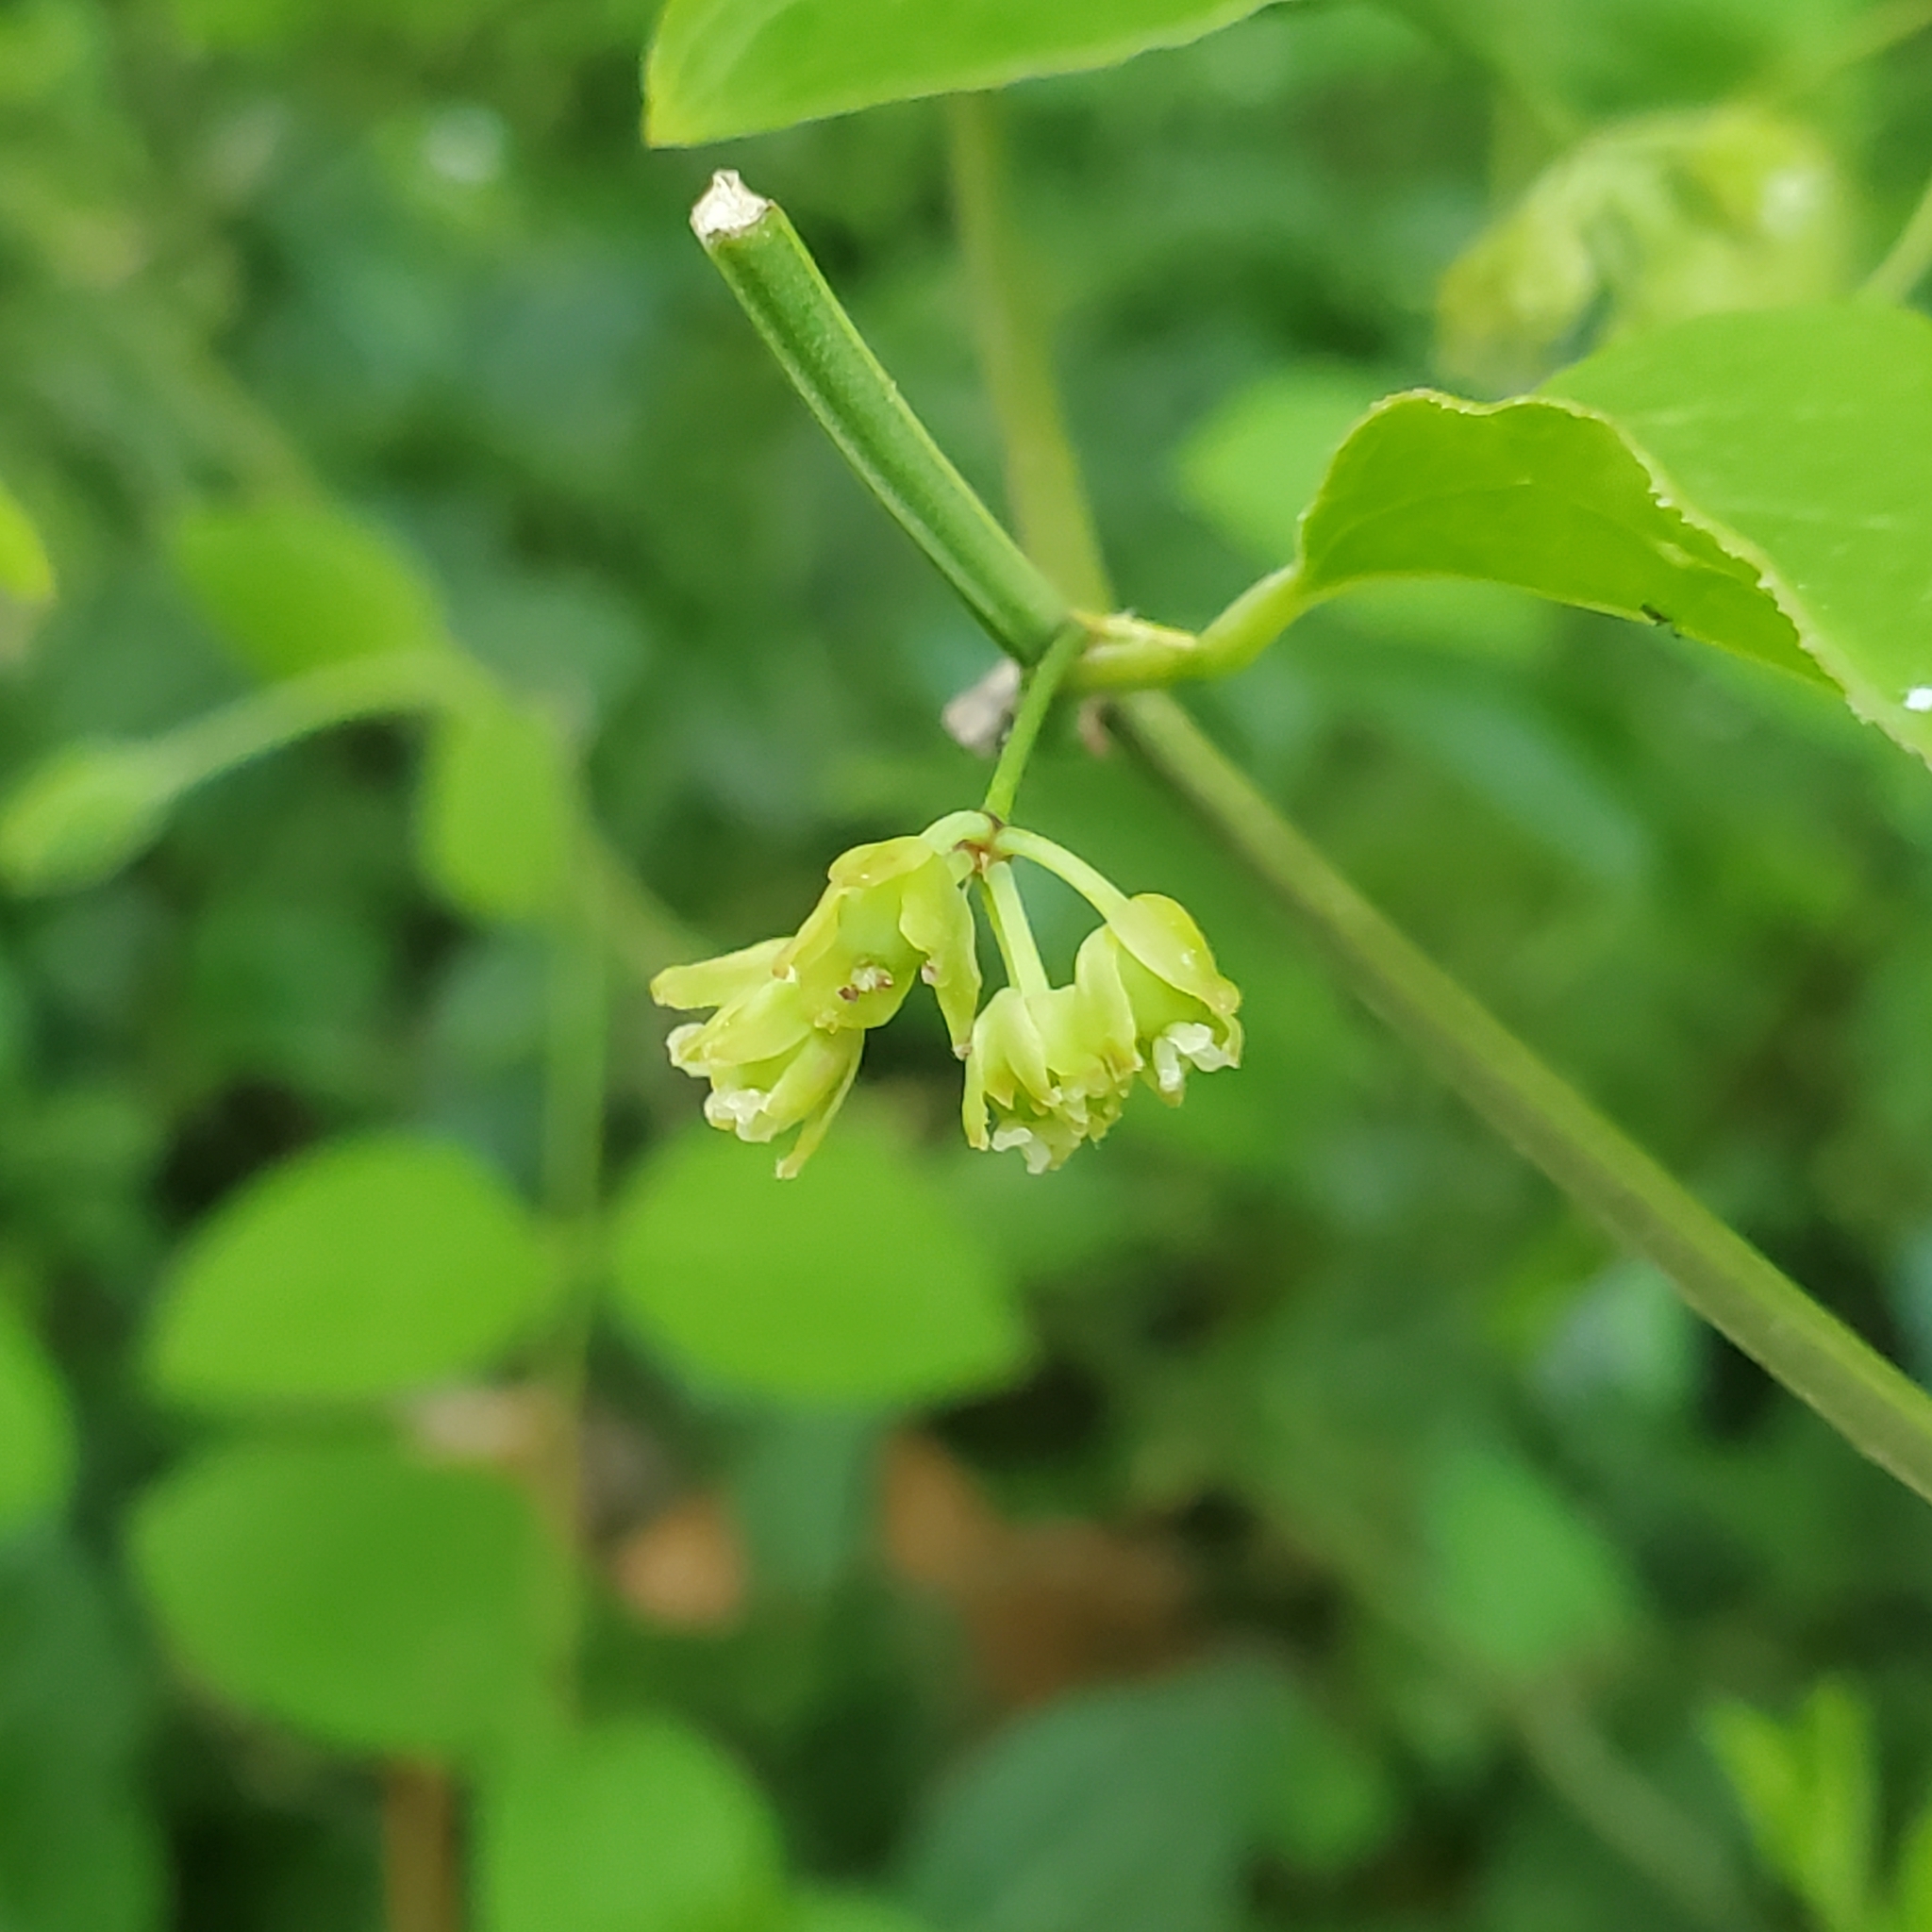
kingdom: Plantae
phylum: Tracheophyta
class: Liliopsida
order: Liliales
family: Smilacaceae
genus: Smilax
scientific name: Smilax tamnoides
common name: Hellfetter
